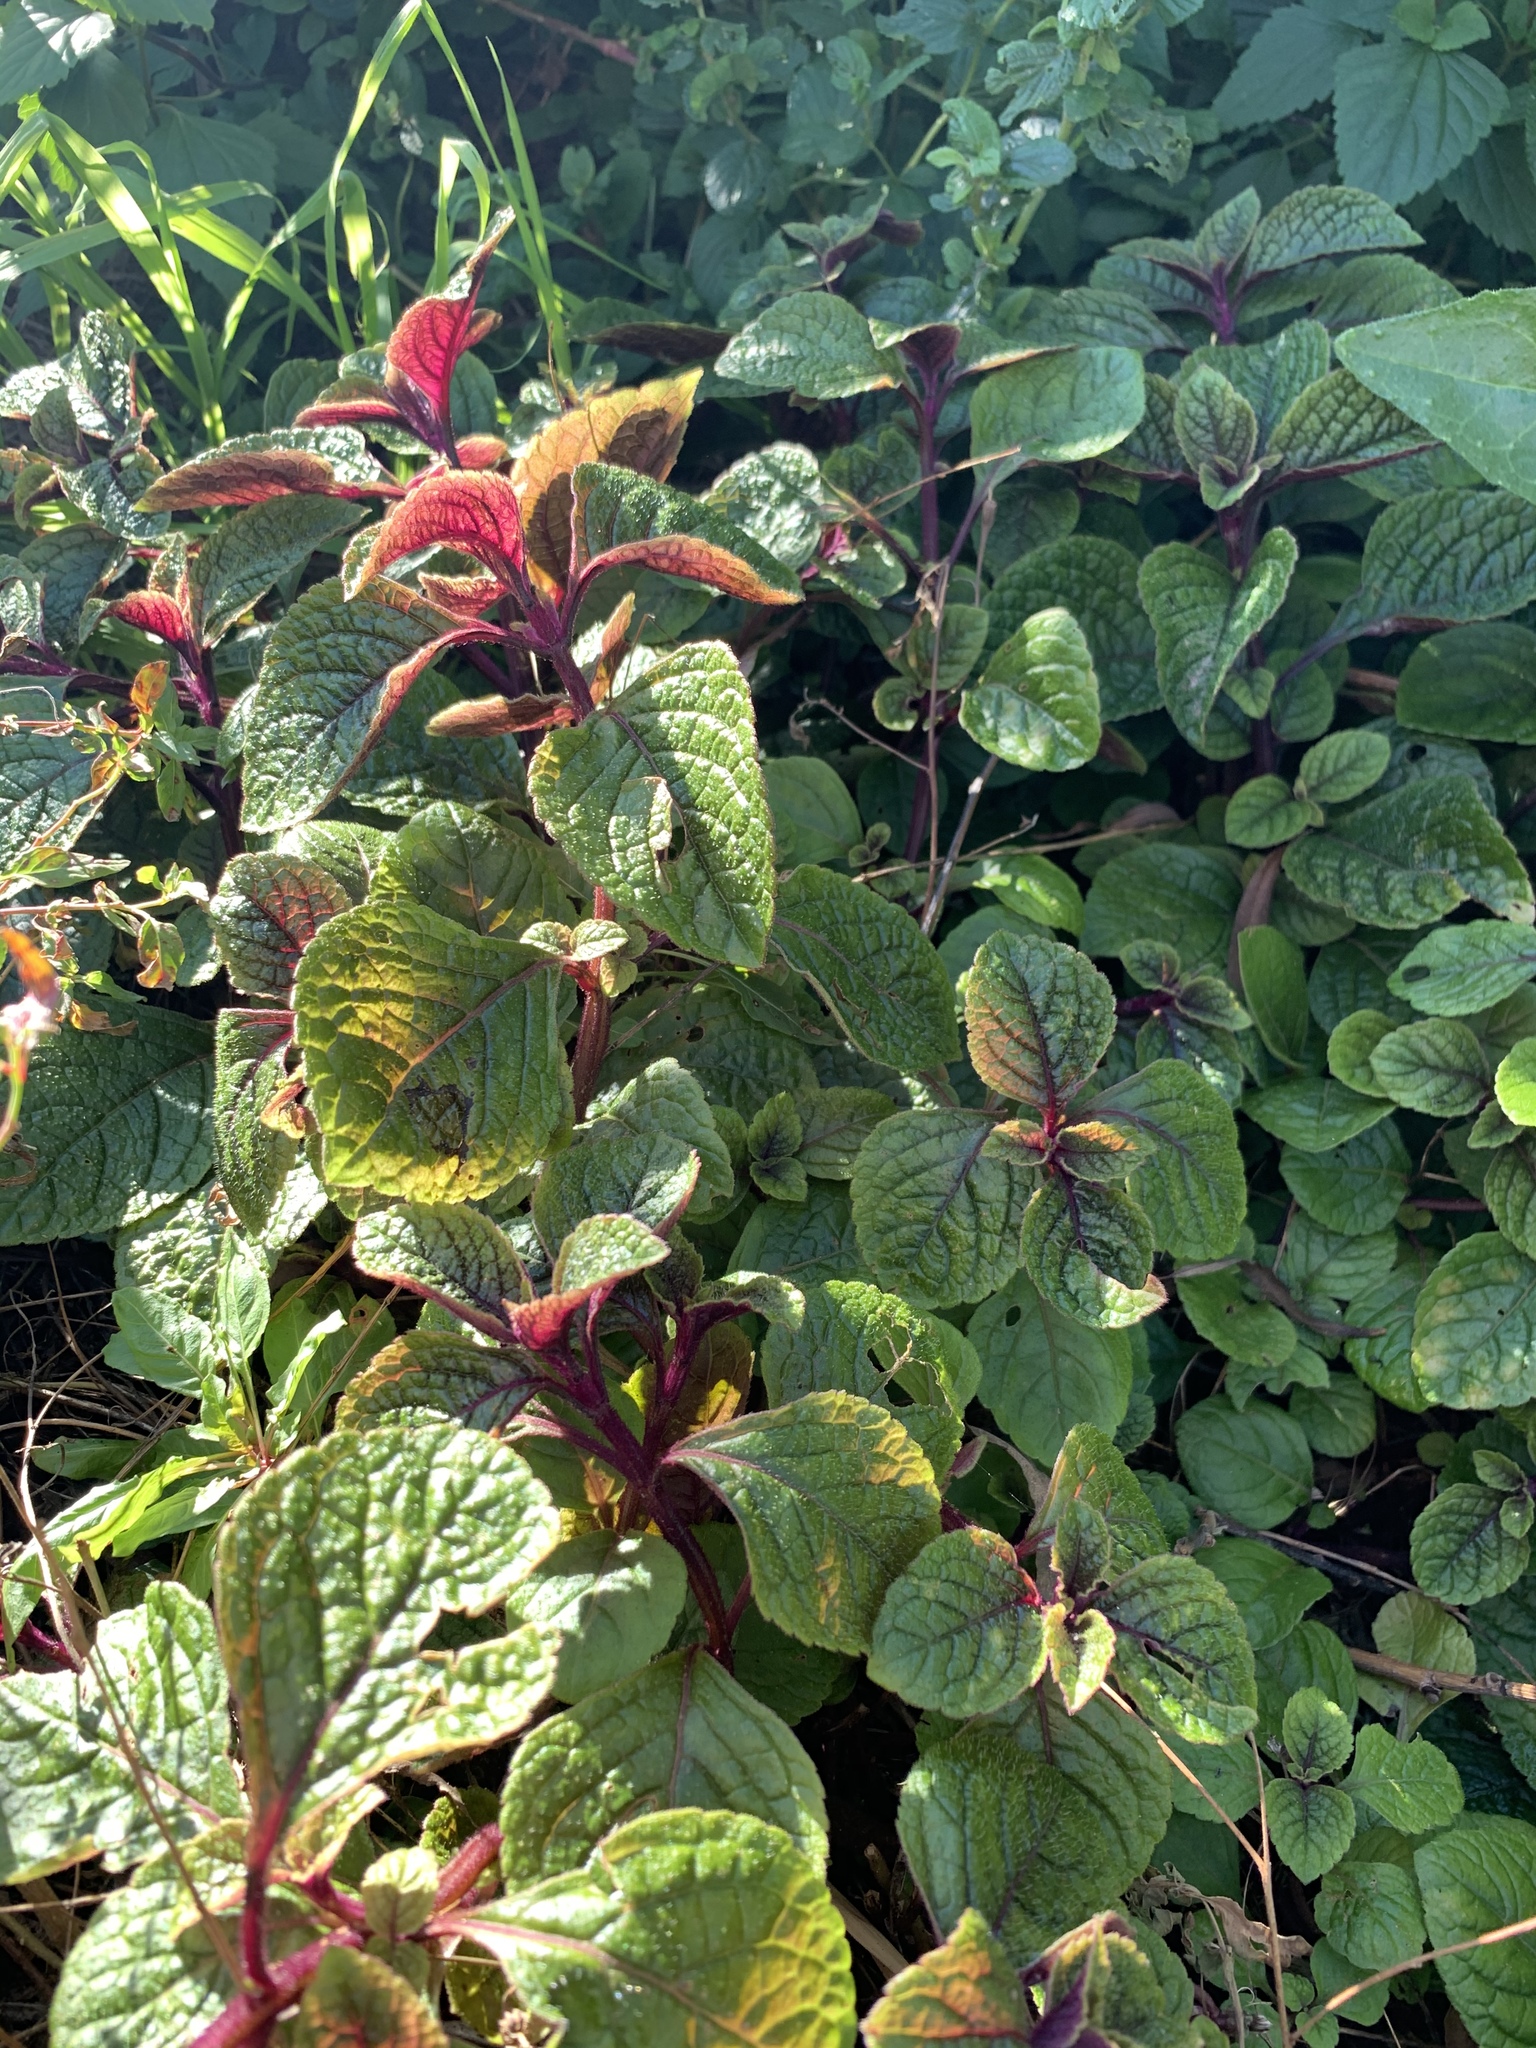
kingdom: Plantae
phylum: Tracheophyta
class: Magnoliopsida
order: Lamiales
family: Lamiaceae
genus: Plectranthus
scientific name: Plectranthus ciliatus
